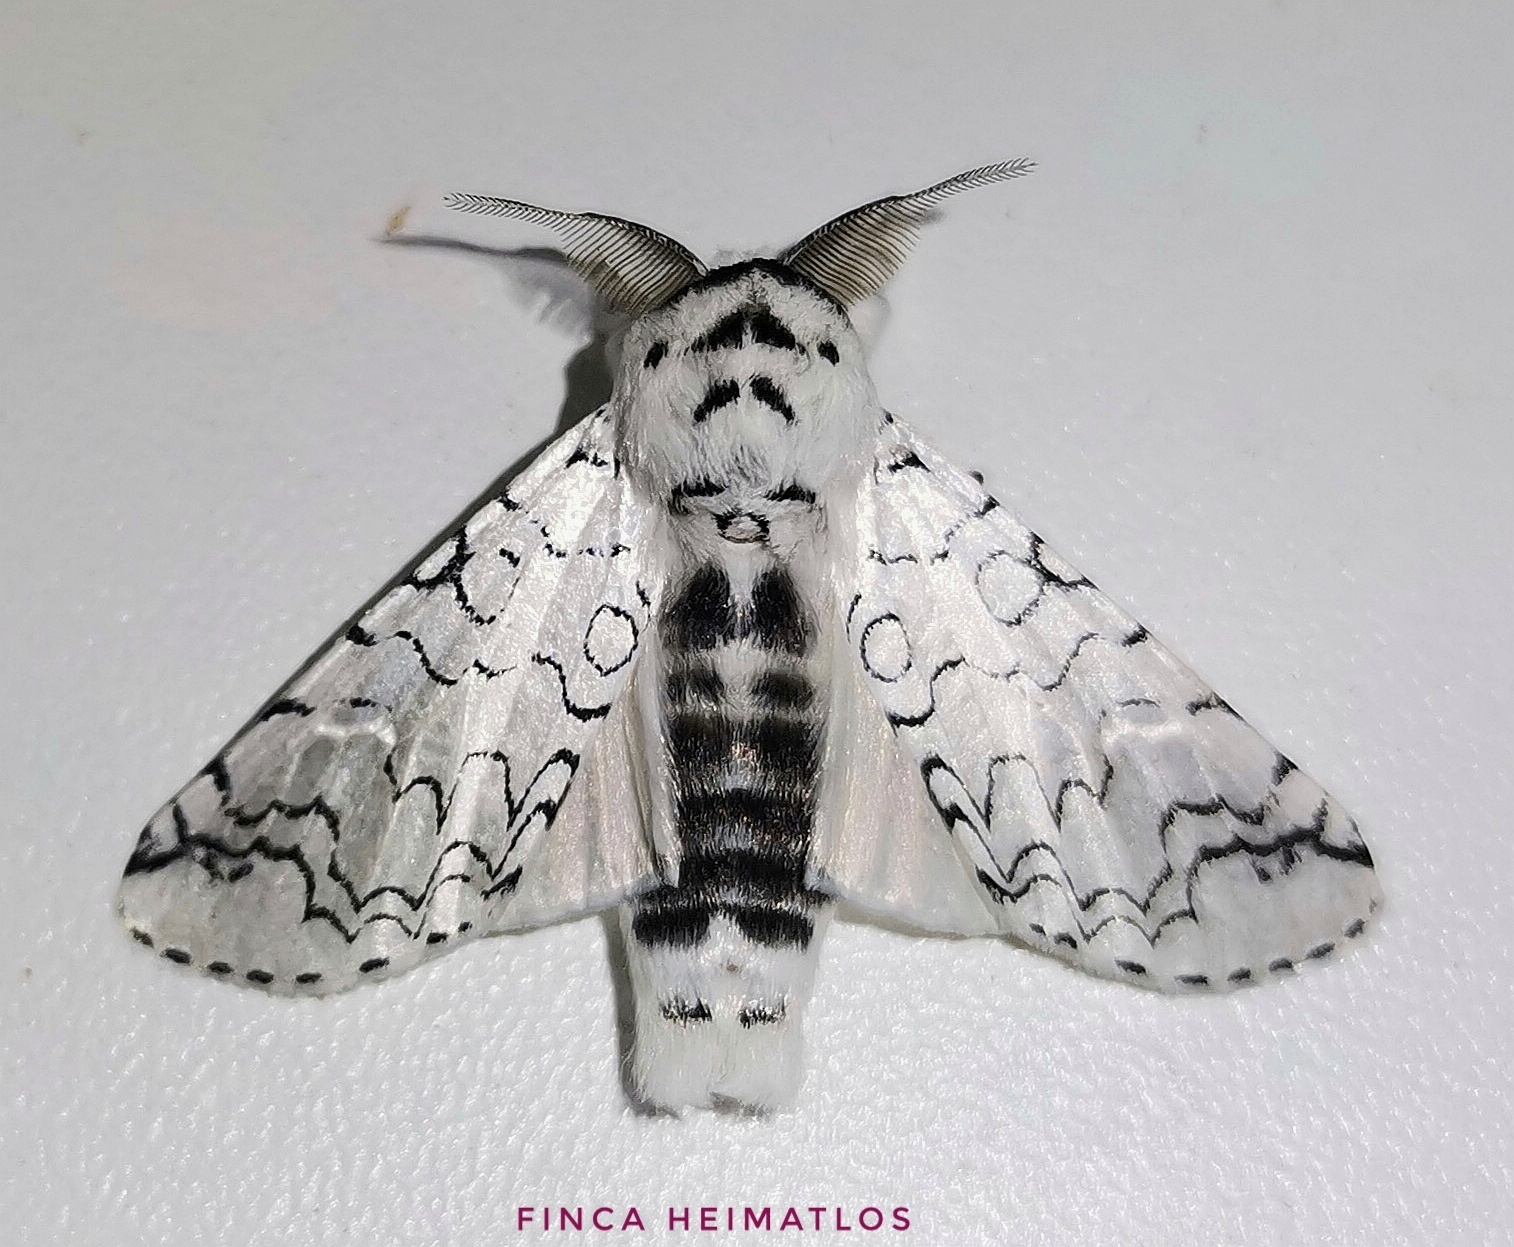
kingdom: Animalia
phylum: Arthropoda
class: Insecta
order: Lepidoptera
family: Notodontidae
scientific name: Notodontidae
